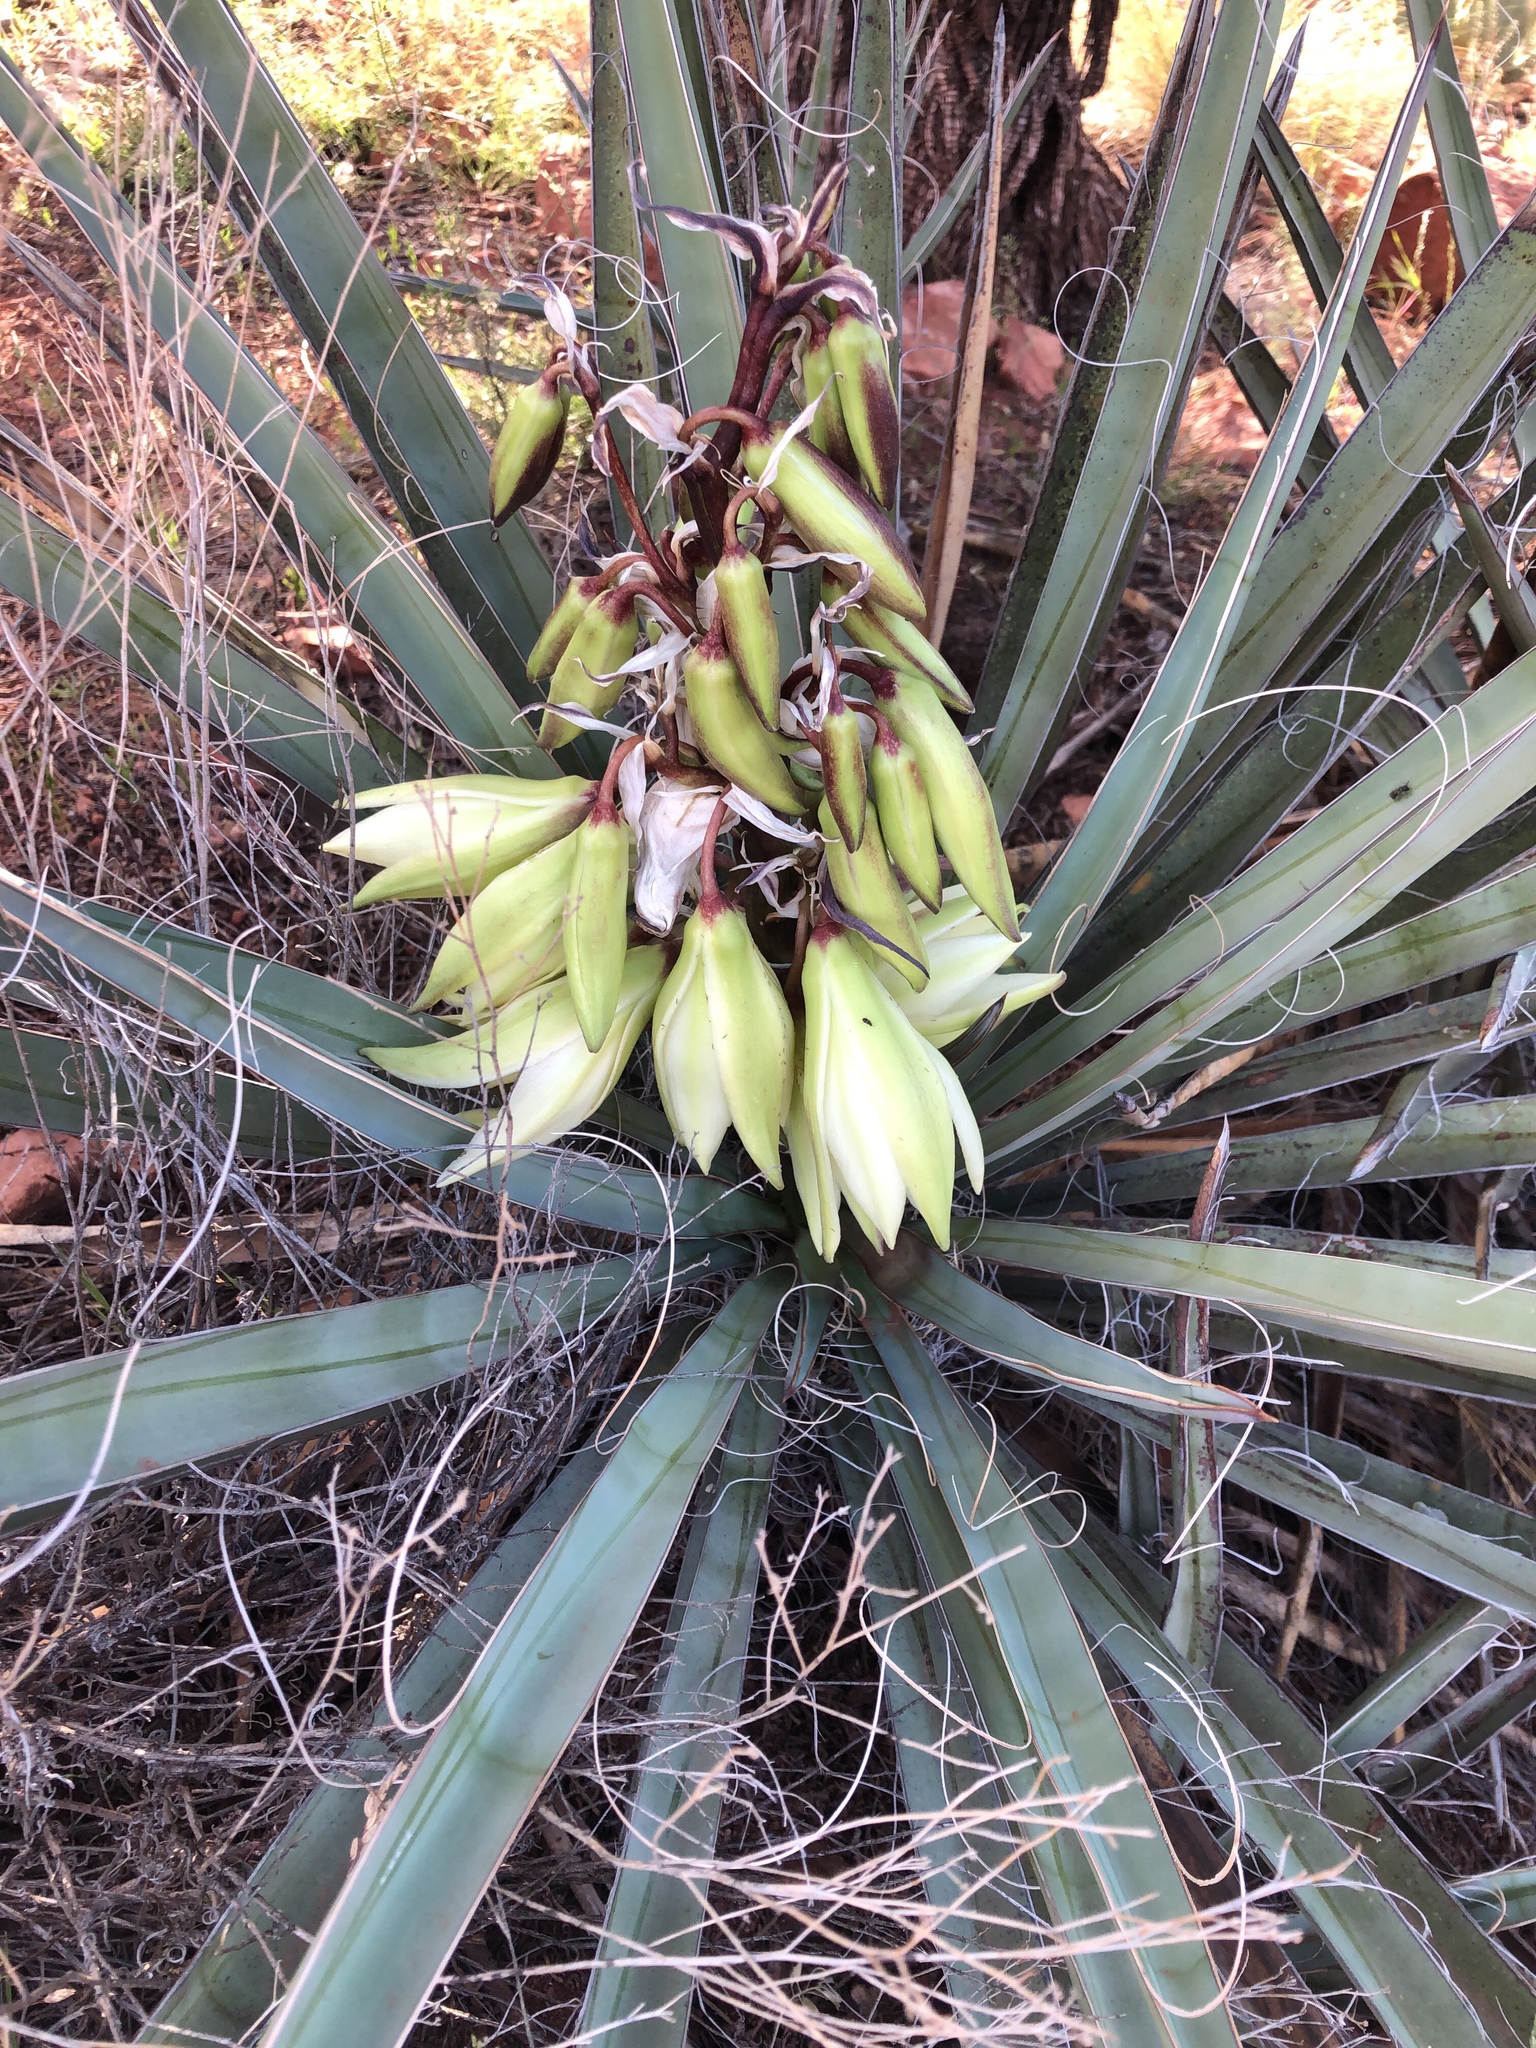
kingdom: Plantae
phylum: Tracheophyta
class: Liliopsida
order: Asparagales
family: Asparagaceae
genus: Yucca
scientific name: Yucca baccata
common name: Banana yucca
